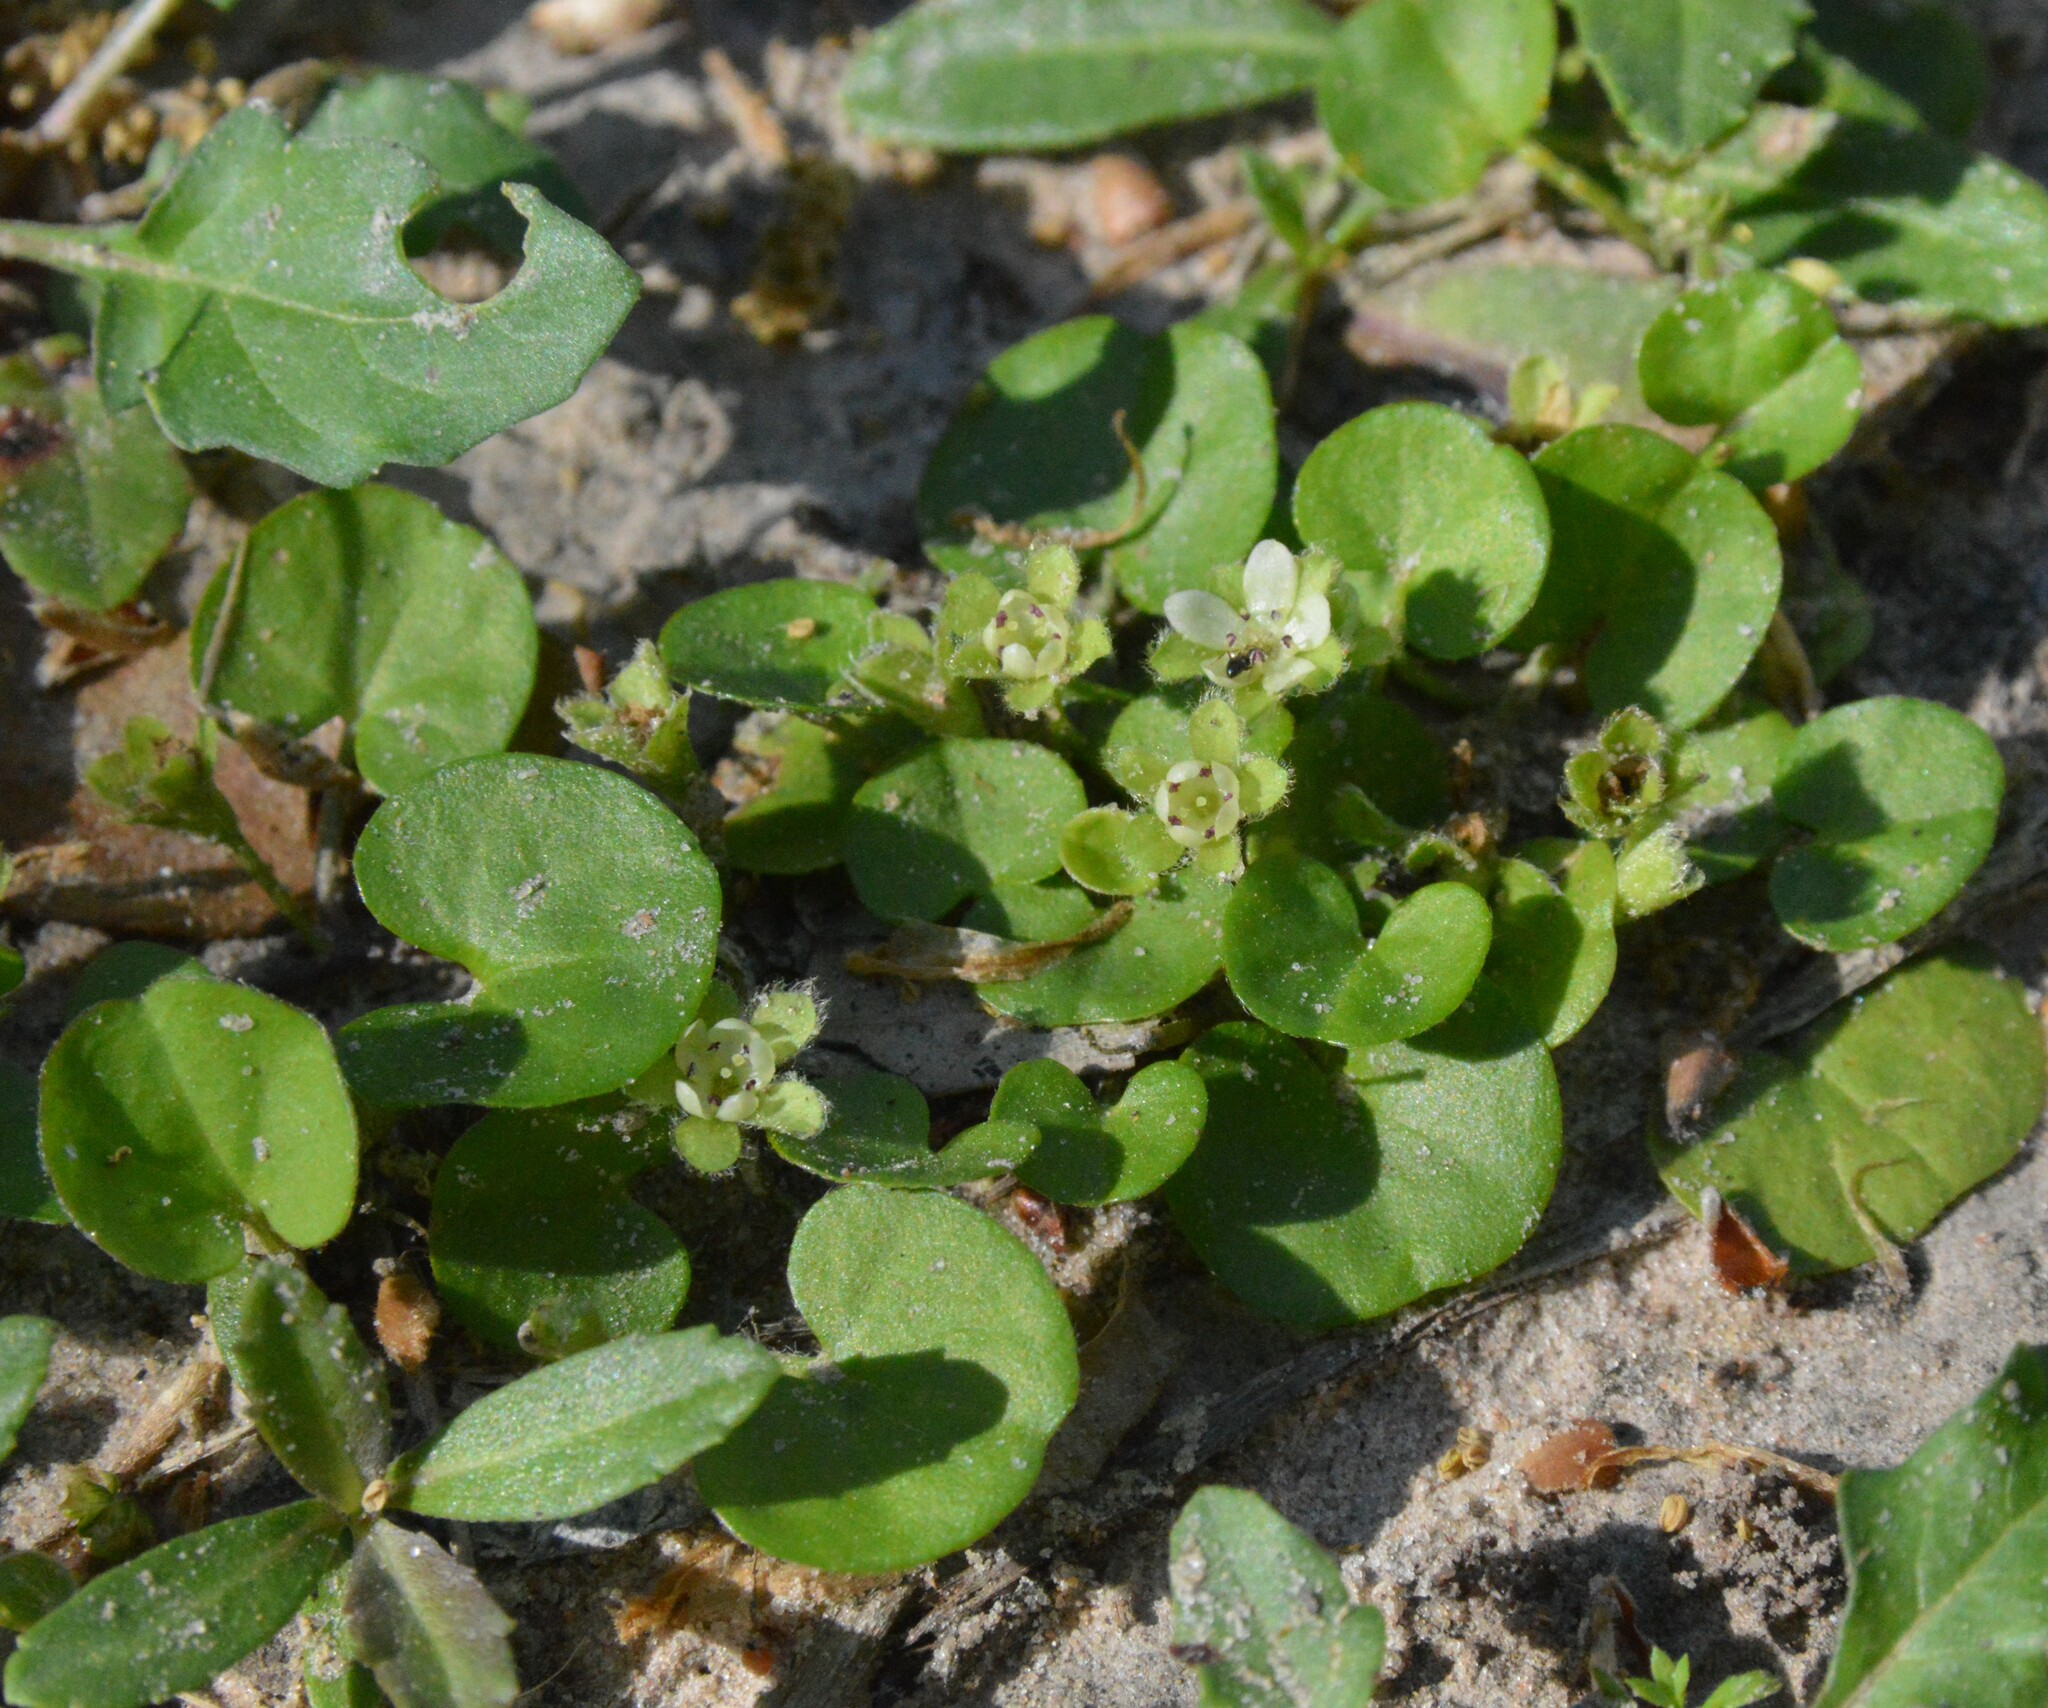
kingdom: Plantae
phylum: Tracheophyta
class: Magnoliopsida
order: Solanales
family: Convolvulaceae
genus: Dichondra
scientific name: Dichondra carolinensis
